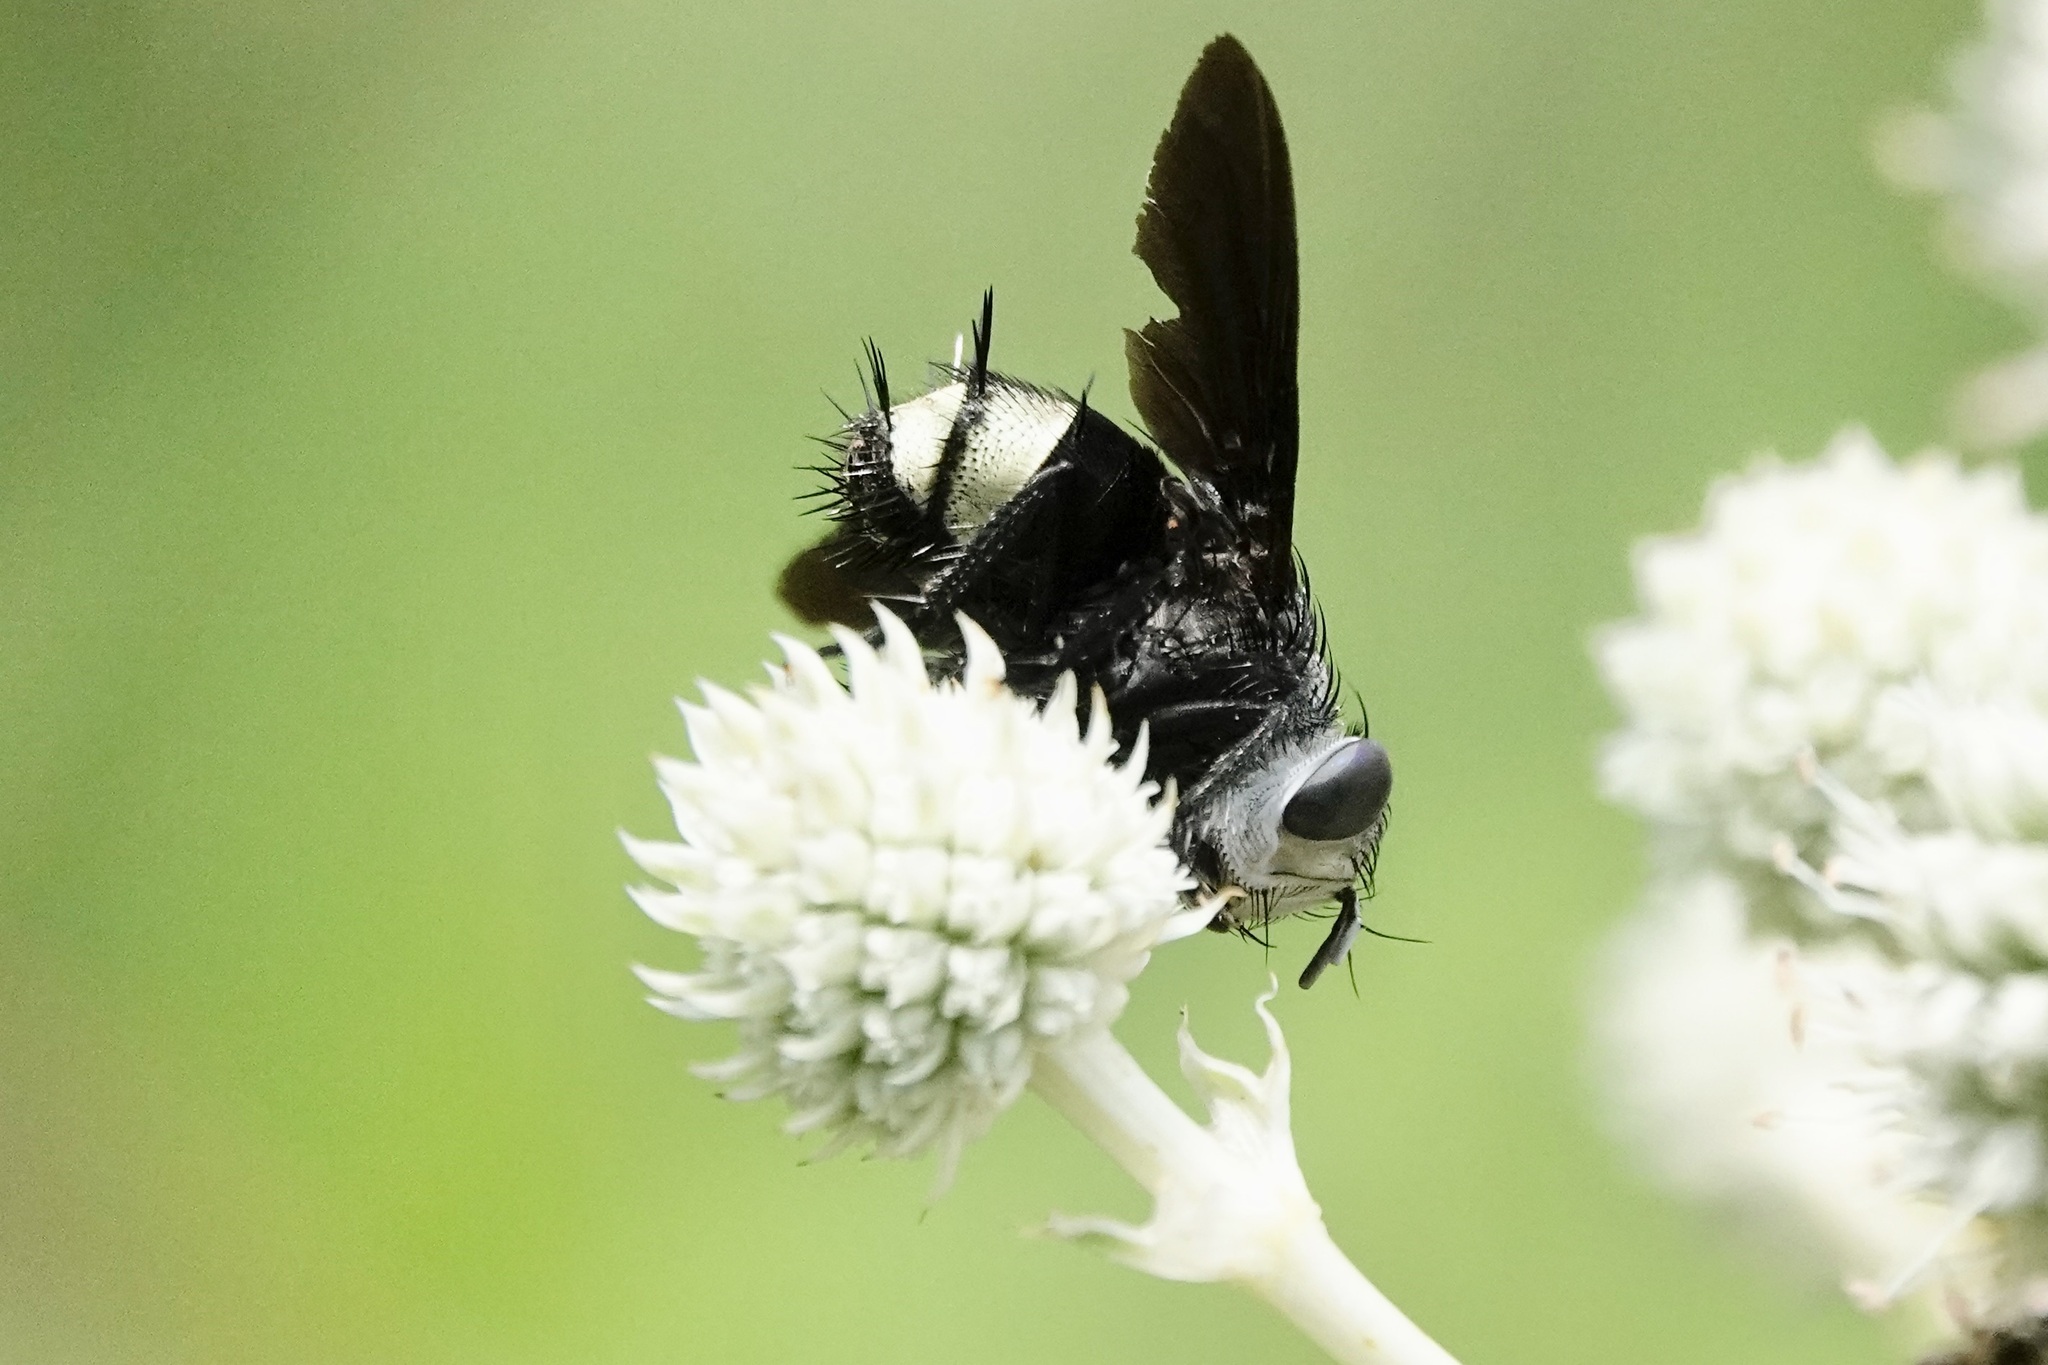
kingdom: Animalia
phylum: Arthropoda
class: Insecta
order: Diptera
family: Tachinidae
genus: Belvosia
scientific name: Belvosia borealis
